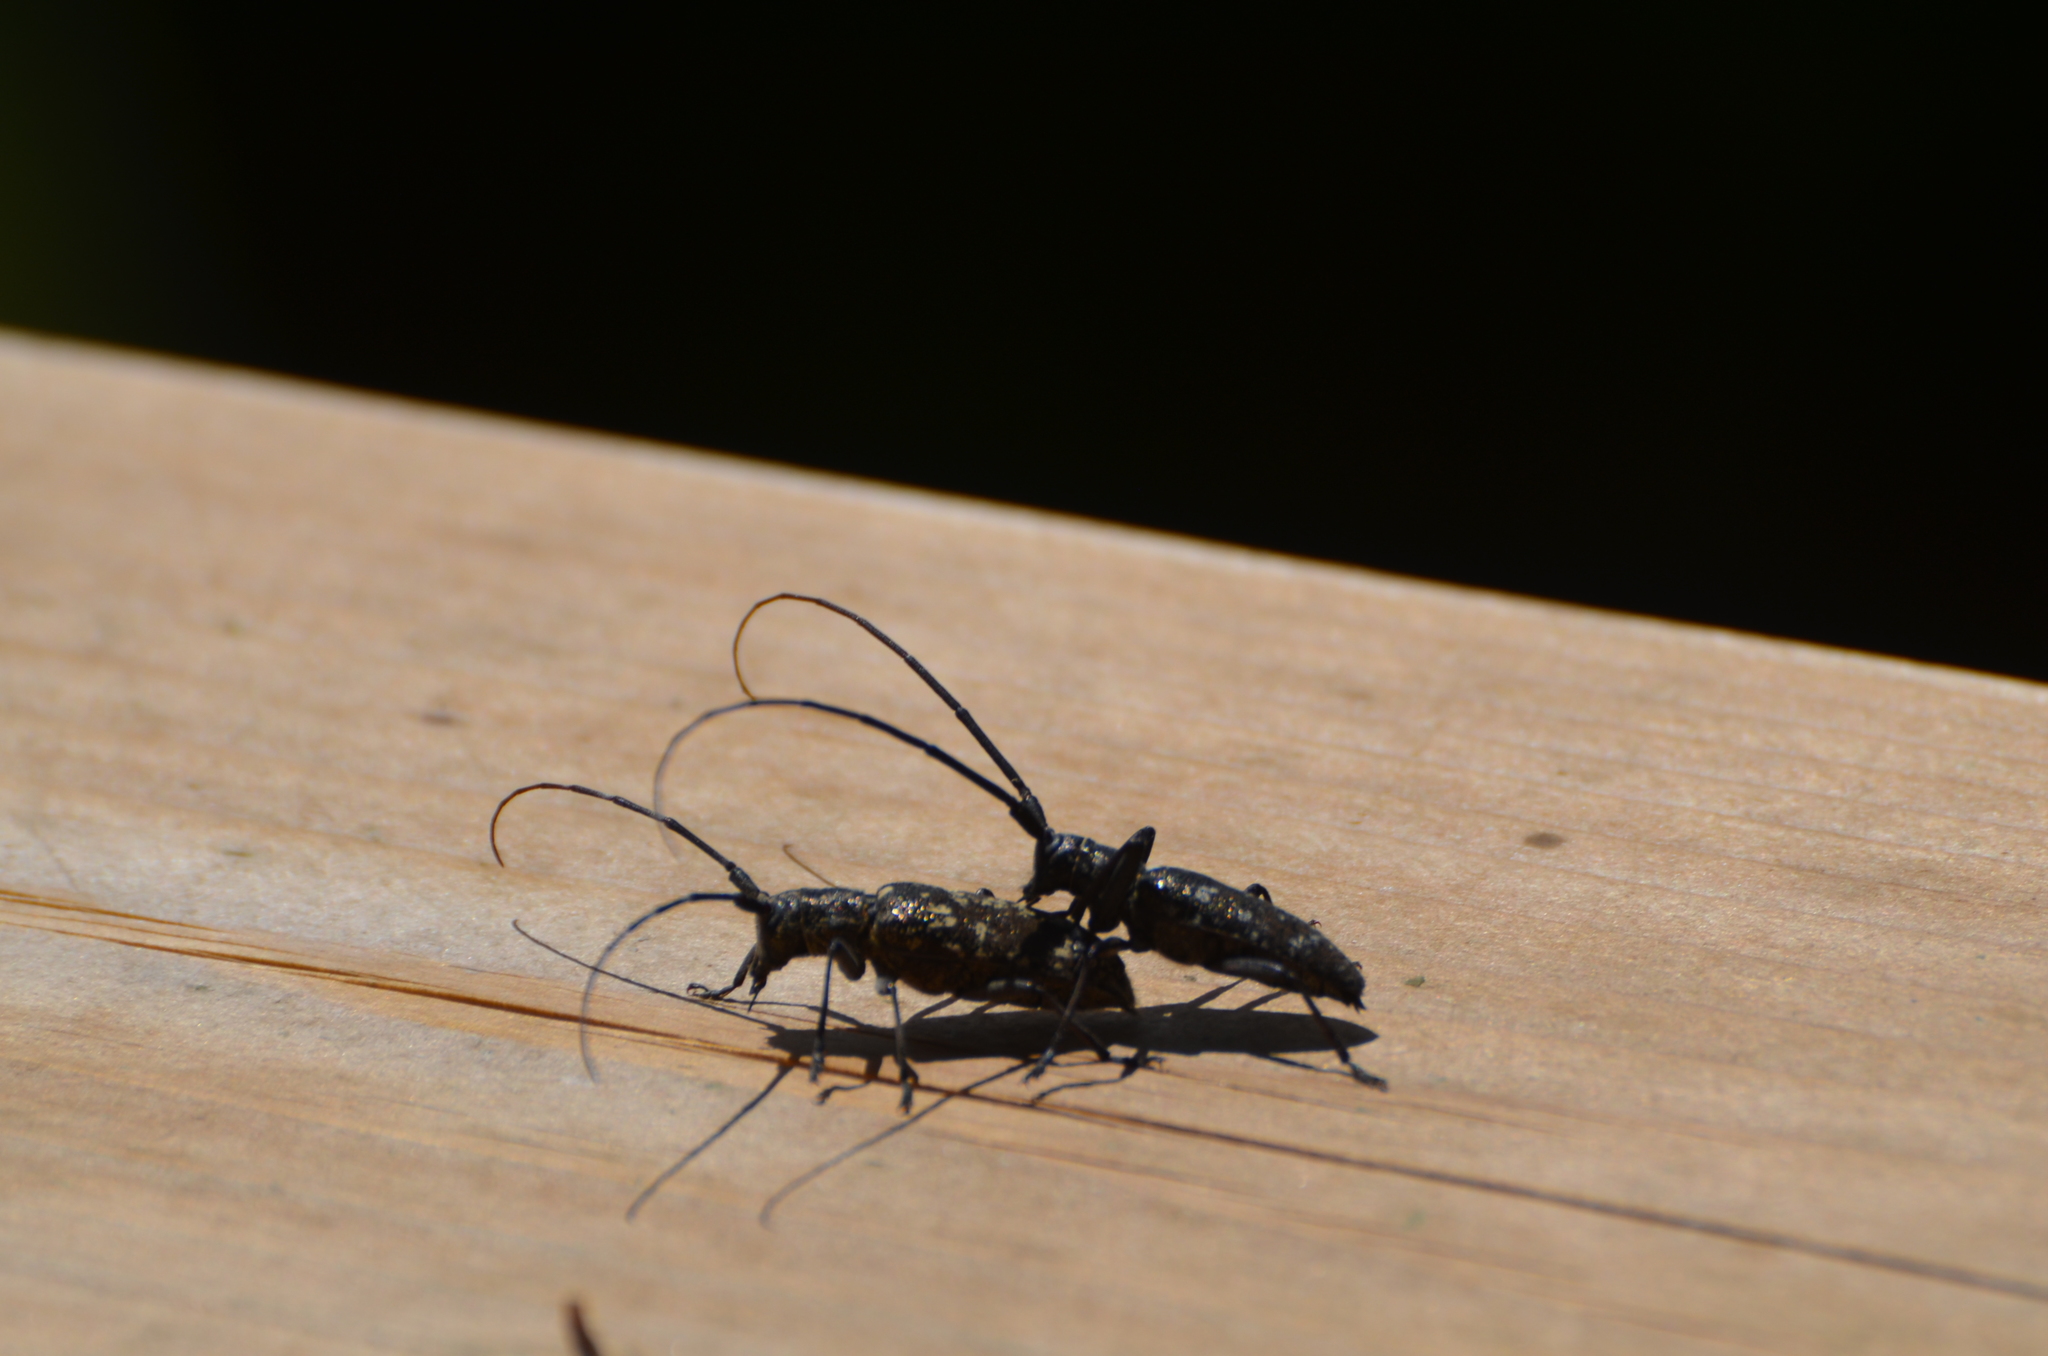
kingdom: Animalia
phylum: Arthropoda
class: Insecta
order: Coleoptera
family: Cerambycidae
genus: Monochamus
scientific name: Monochamus scutellatus
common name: White-spotted sawyer beetle
